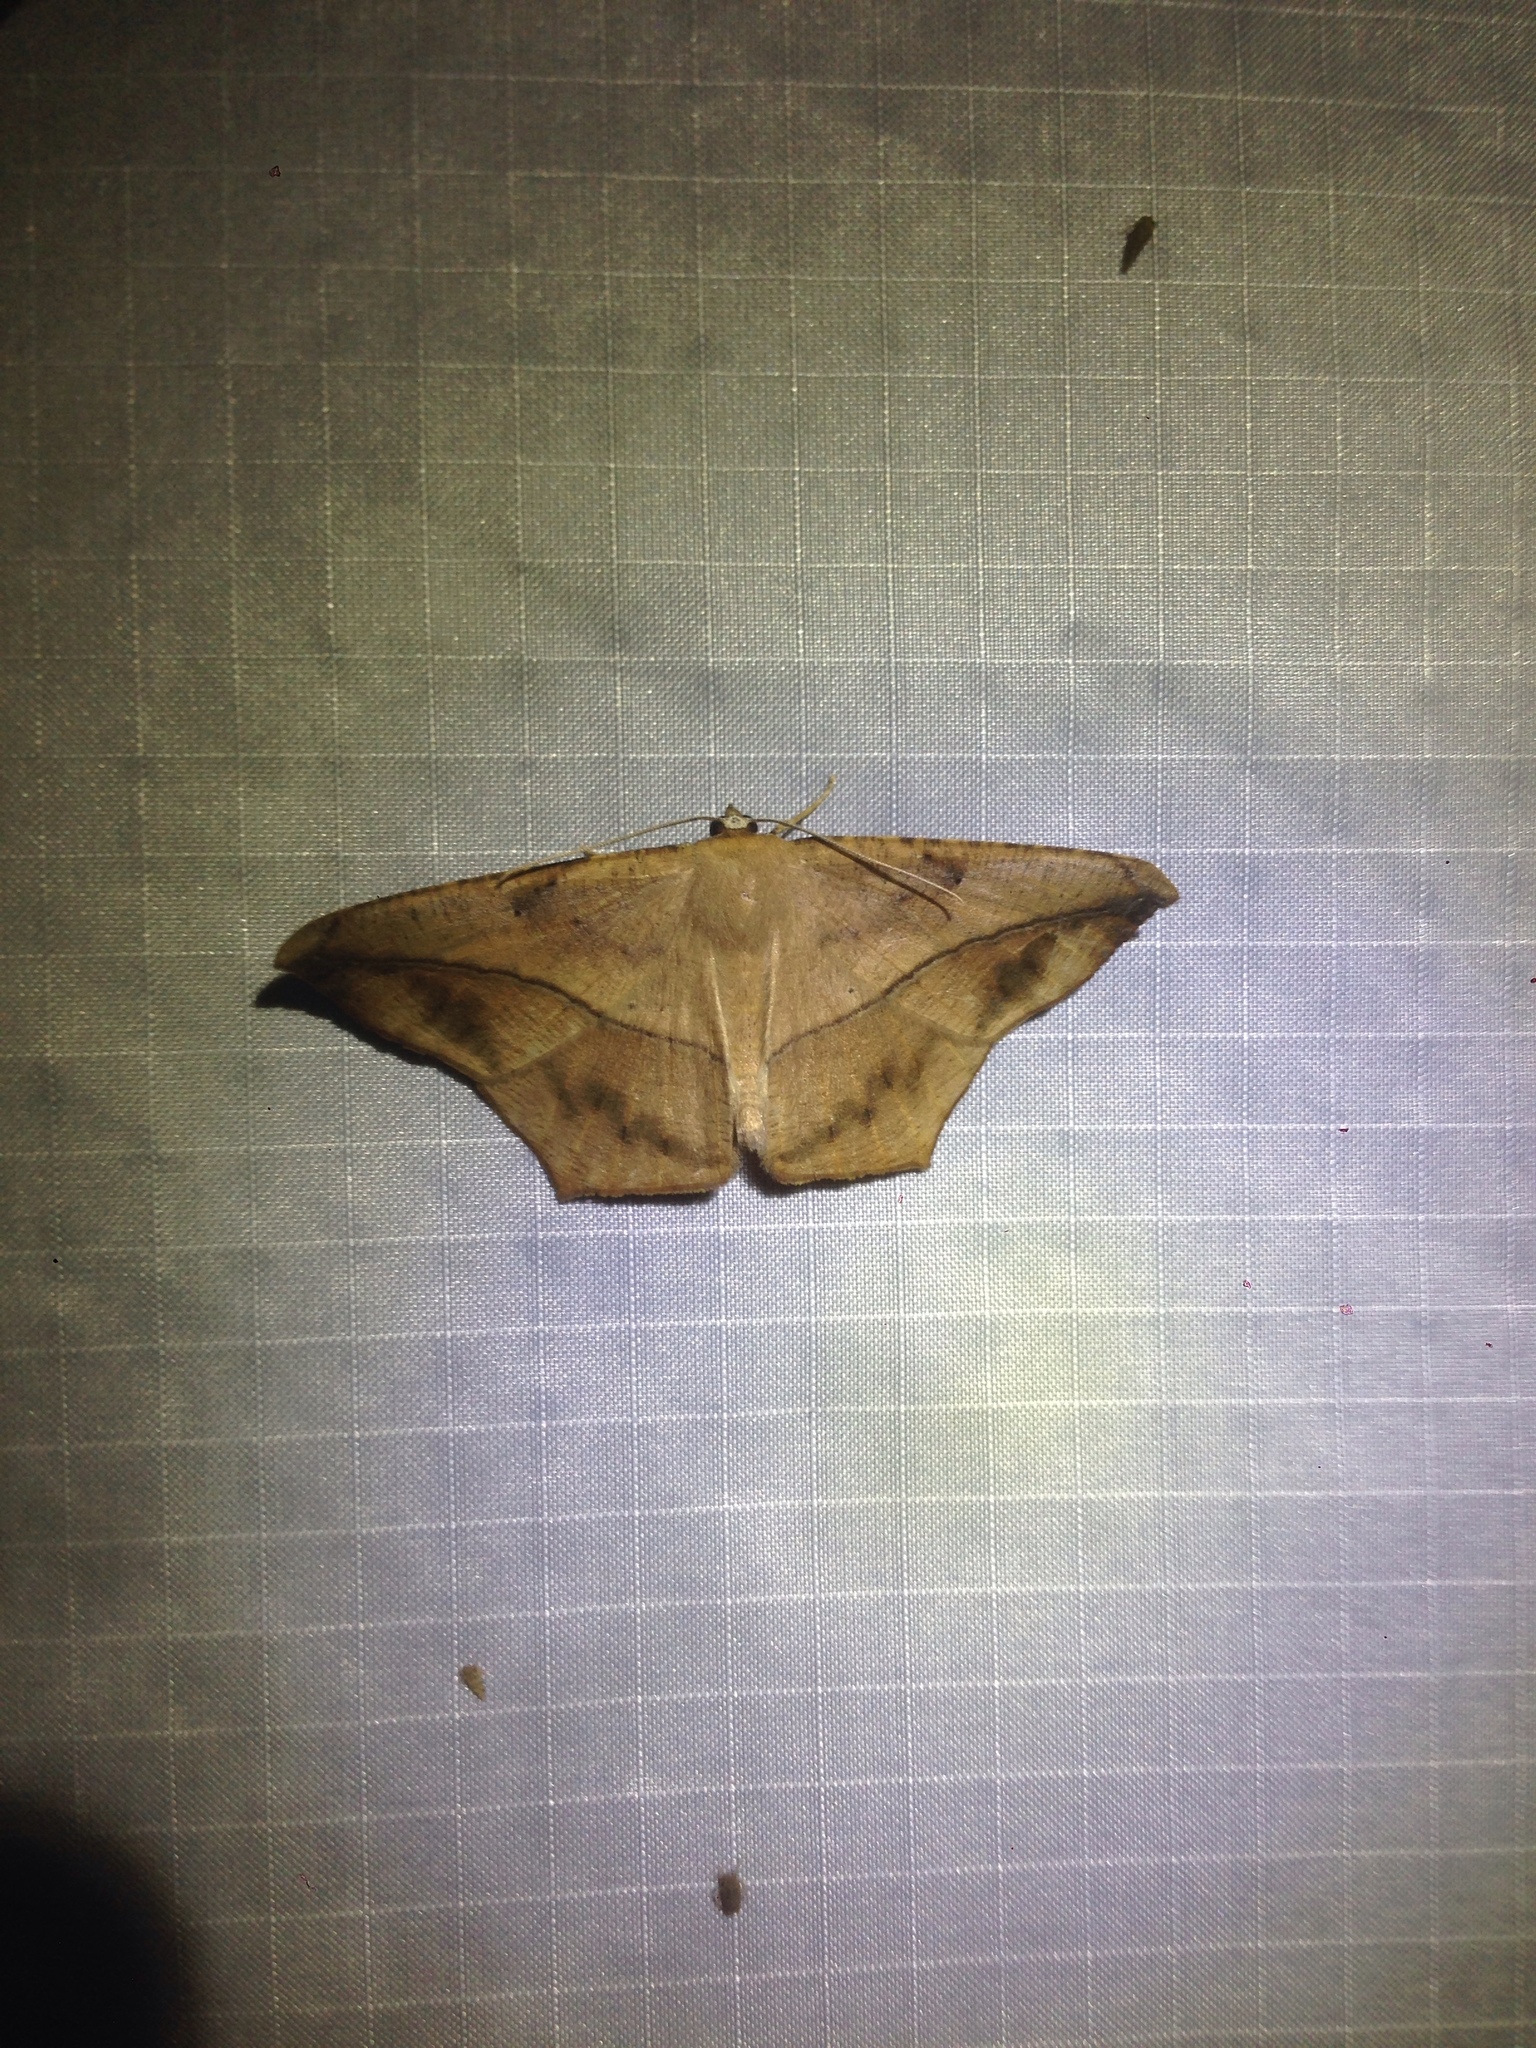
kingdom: Animalia
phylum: Arthropoda
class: Insecta
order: Lepidoptera
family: Geometridae
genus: Prochoerodes
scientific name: Prochoerodes lineola
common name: Large maple spanworm
